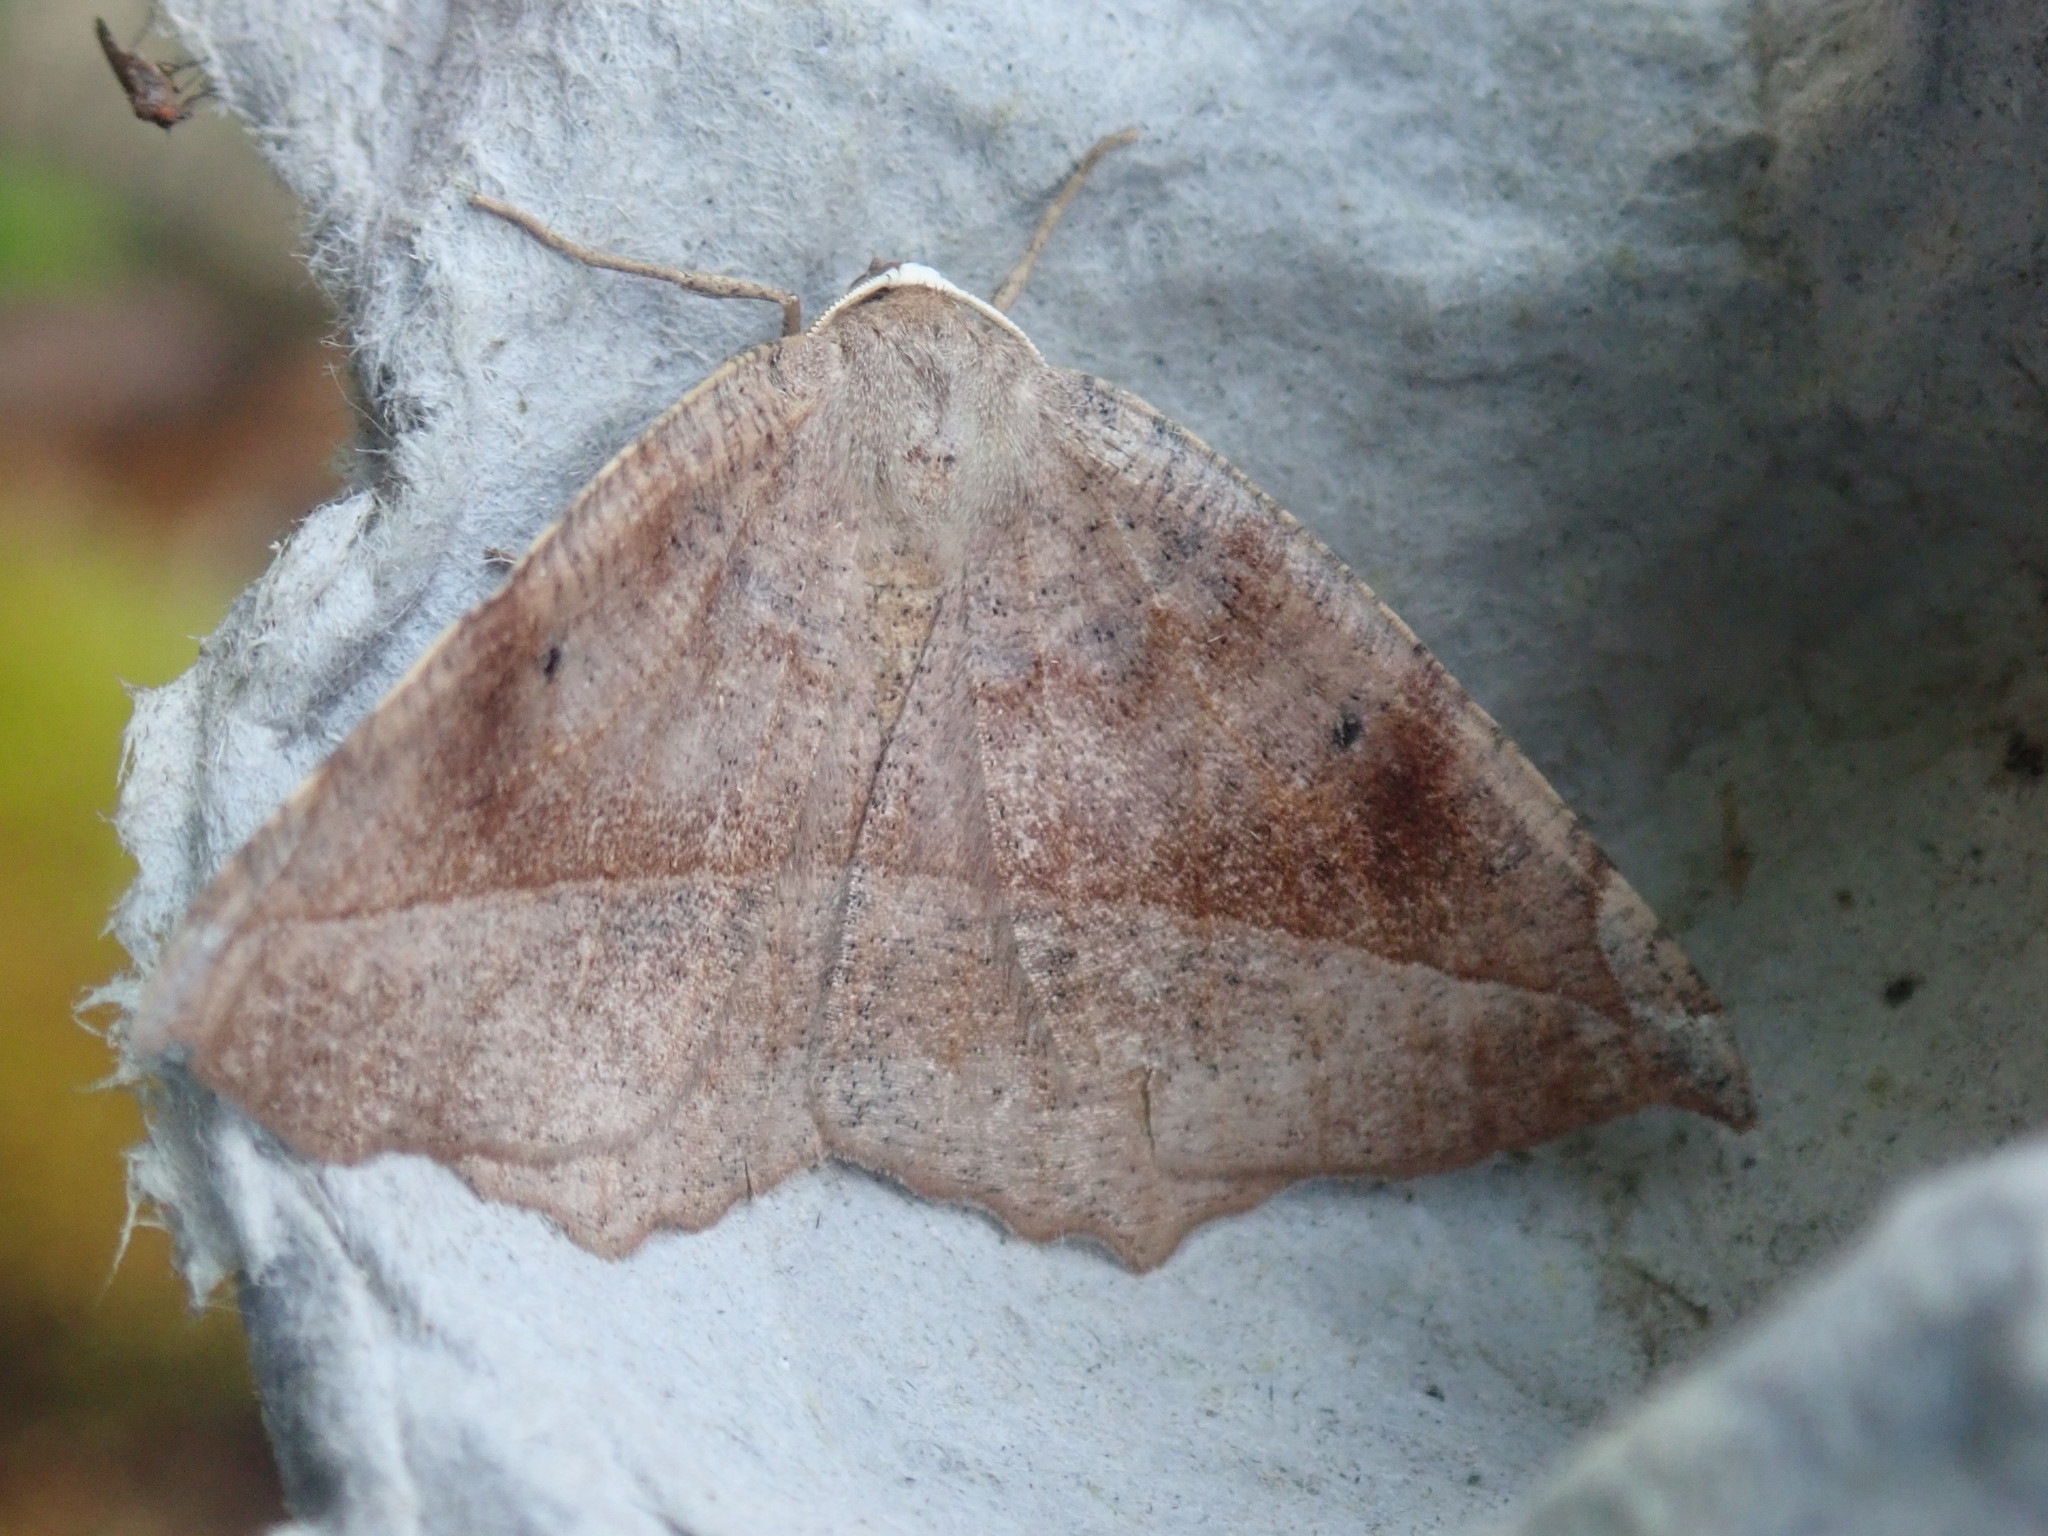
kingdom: Animalia
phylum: Arthropoda
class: Insecta
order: Lepidoptera
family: Geometridae
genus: Eutrapela
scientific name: Eutrapela clemataria
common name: Curved-toothed geometer
